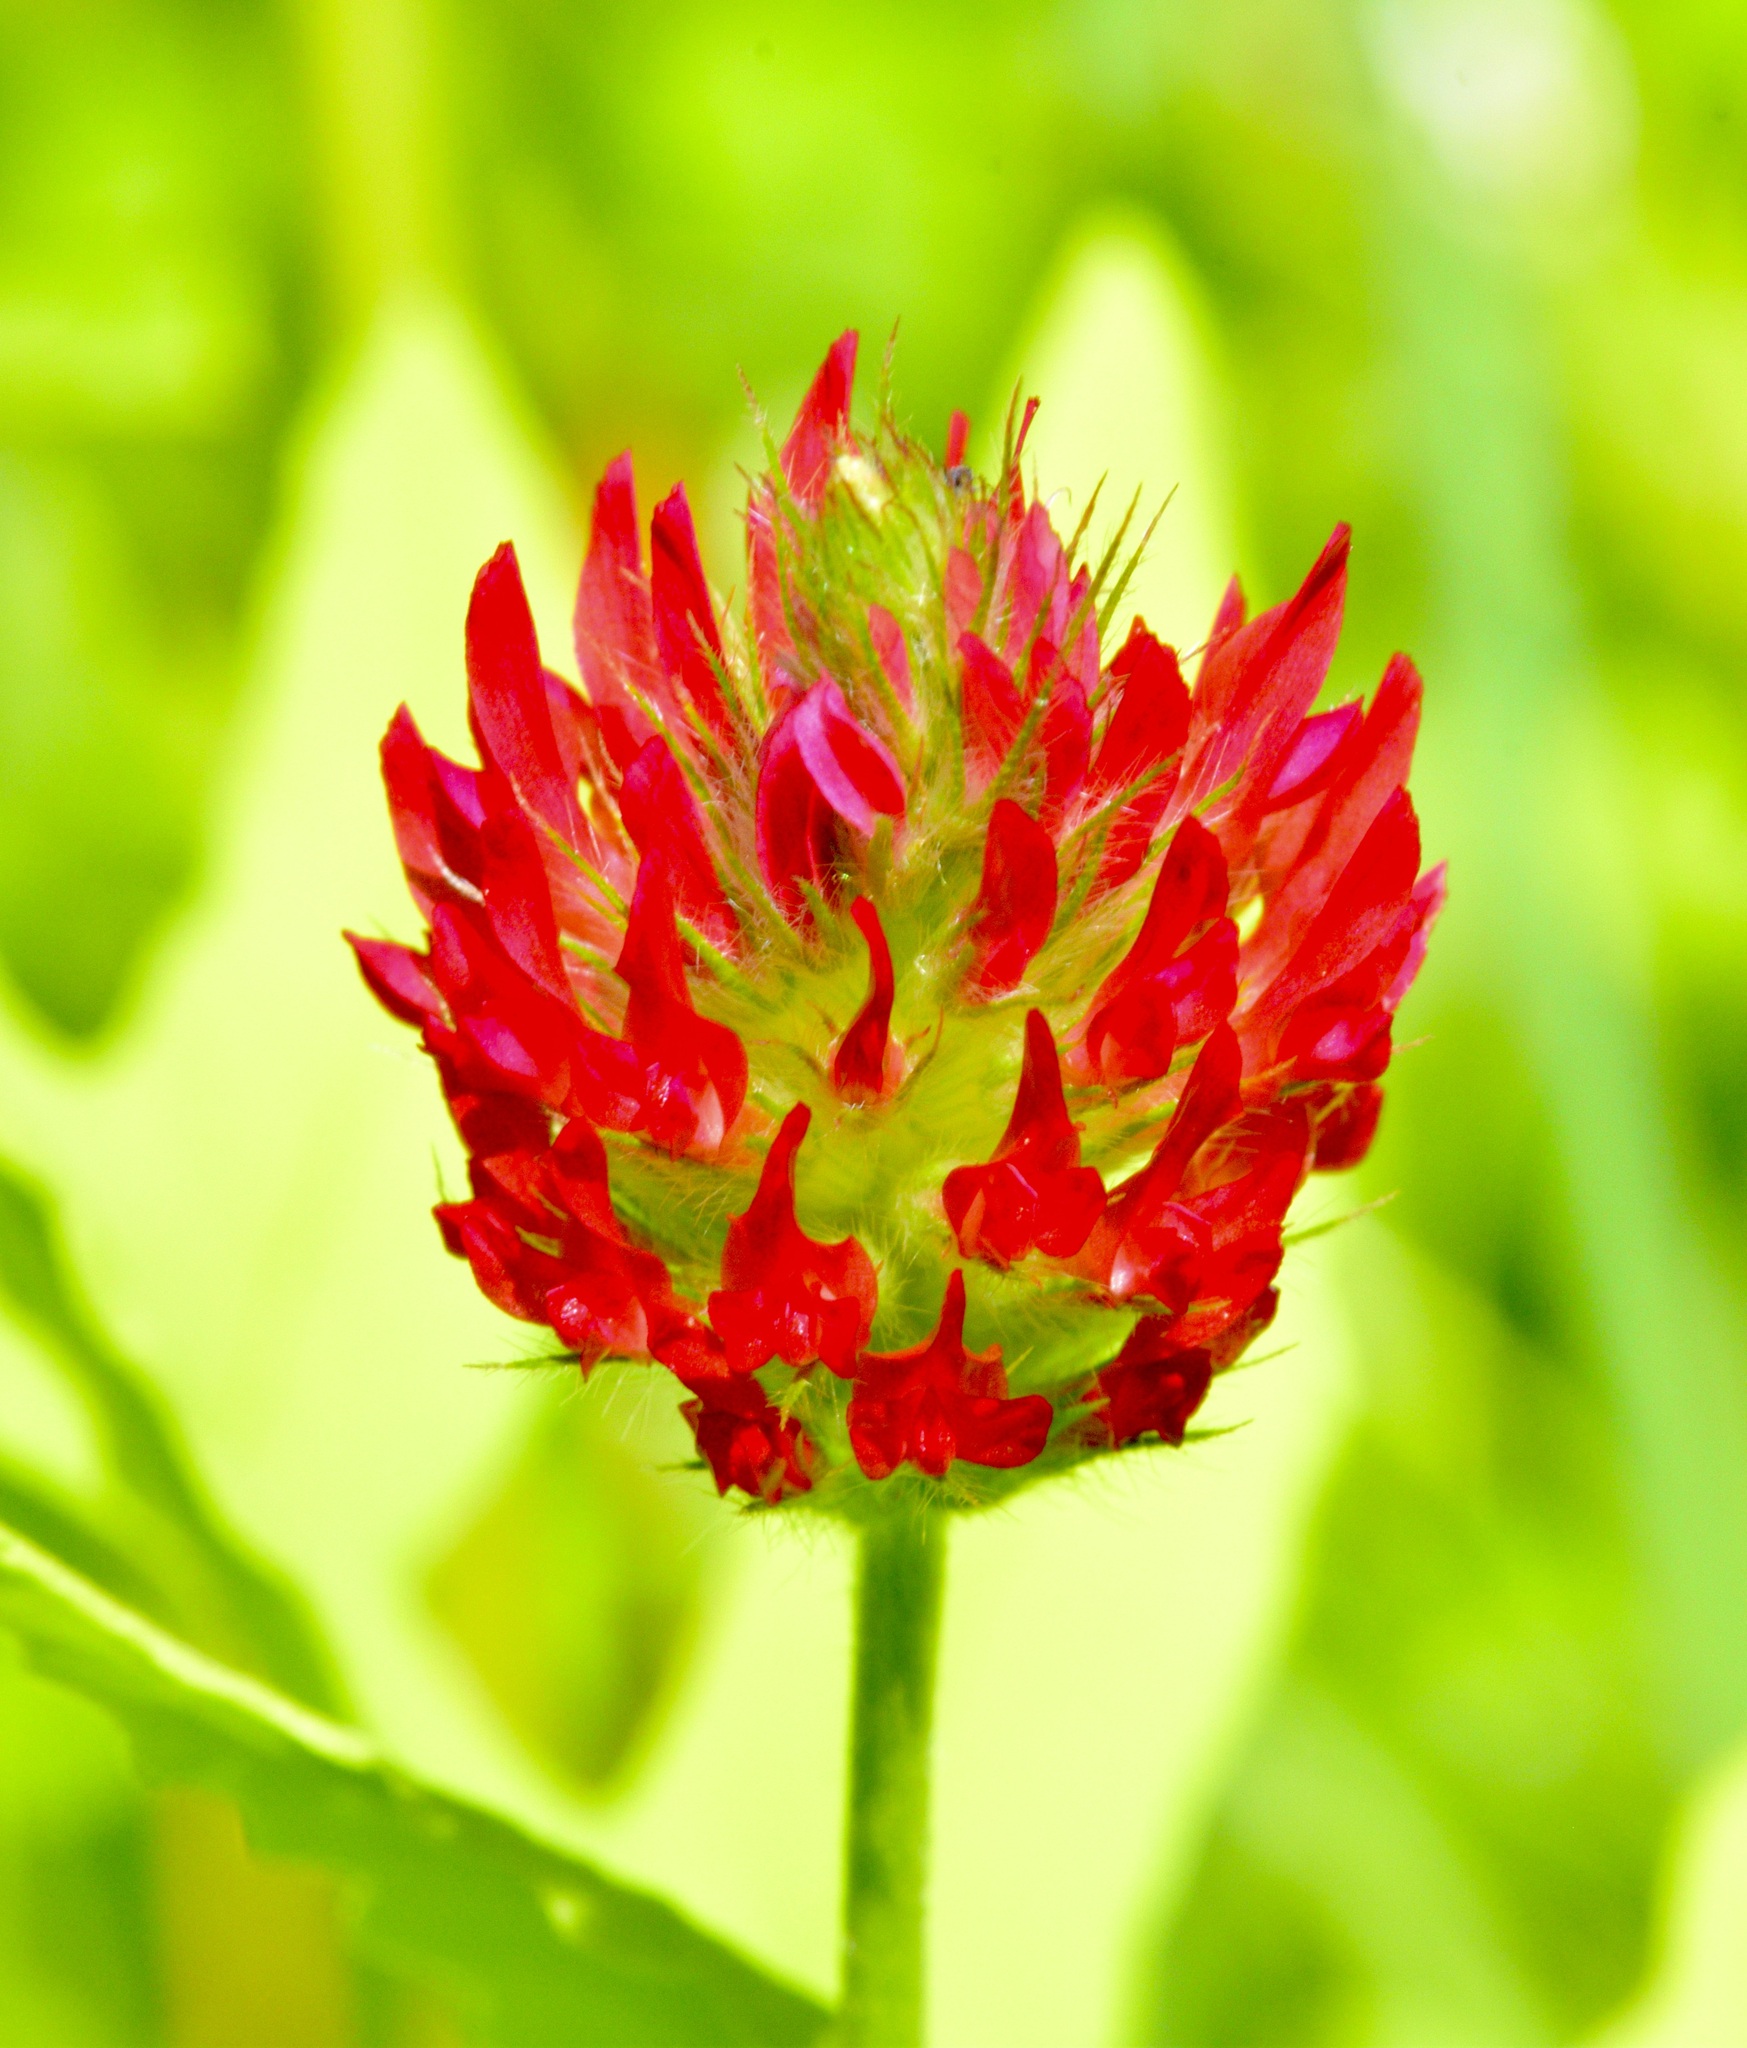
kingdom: Plantae
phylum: Tracheophyta
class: Magnoliopsida
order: Fabales
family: Fabaceae
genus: Trifolium
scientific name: Trifolium incarnatum
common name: Crimson clover
